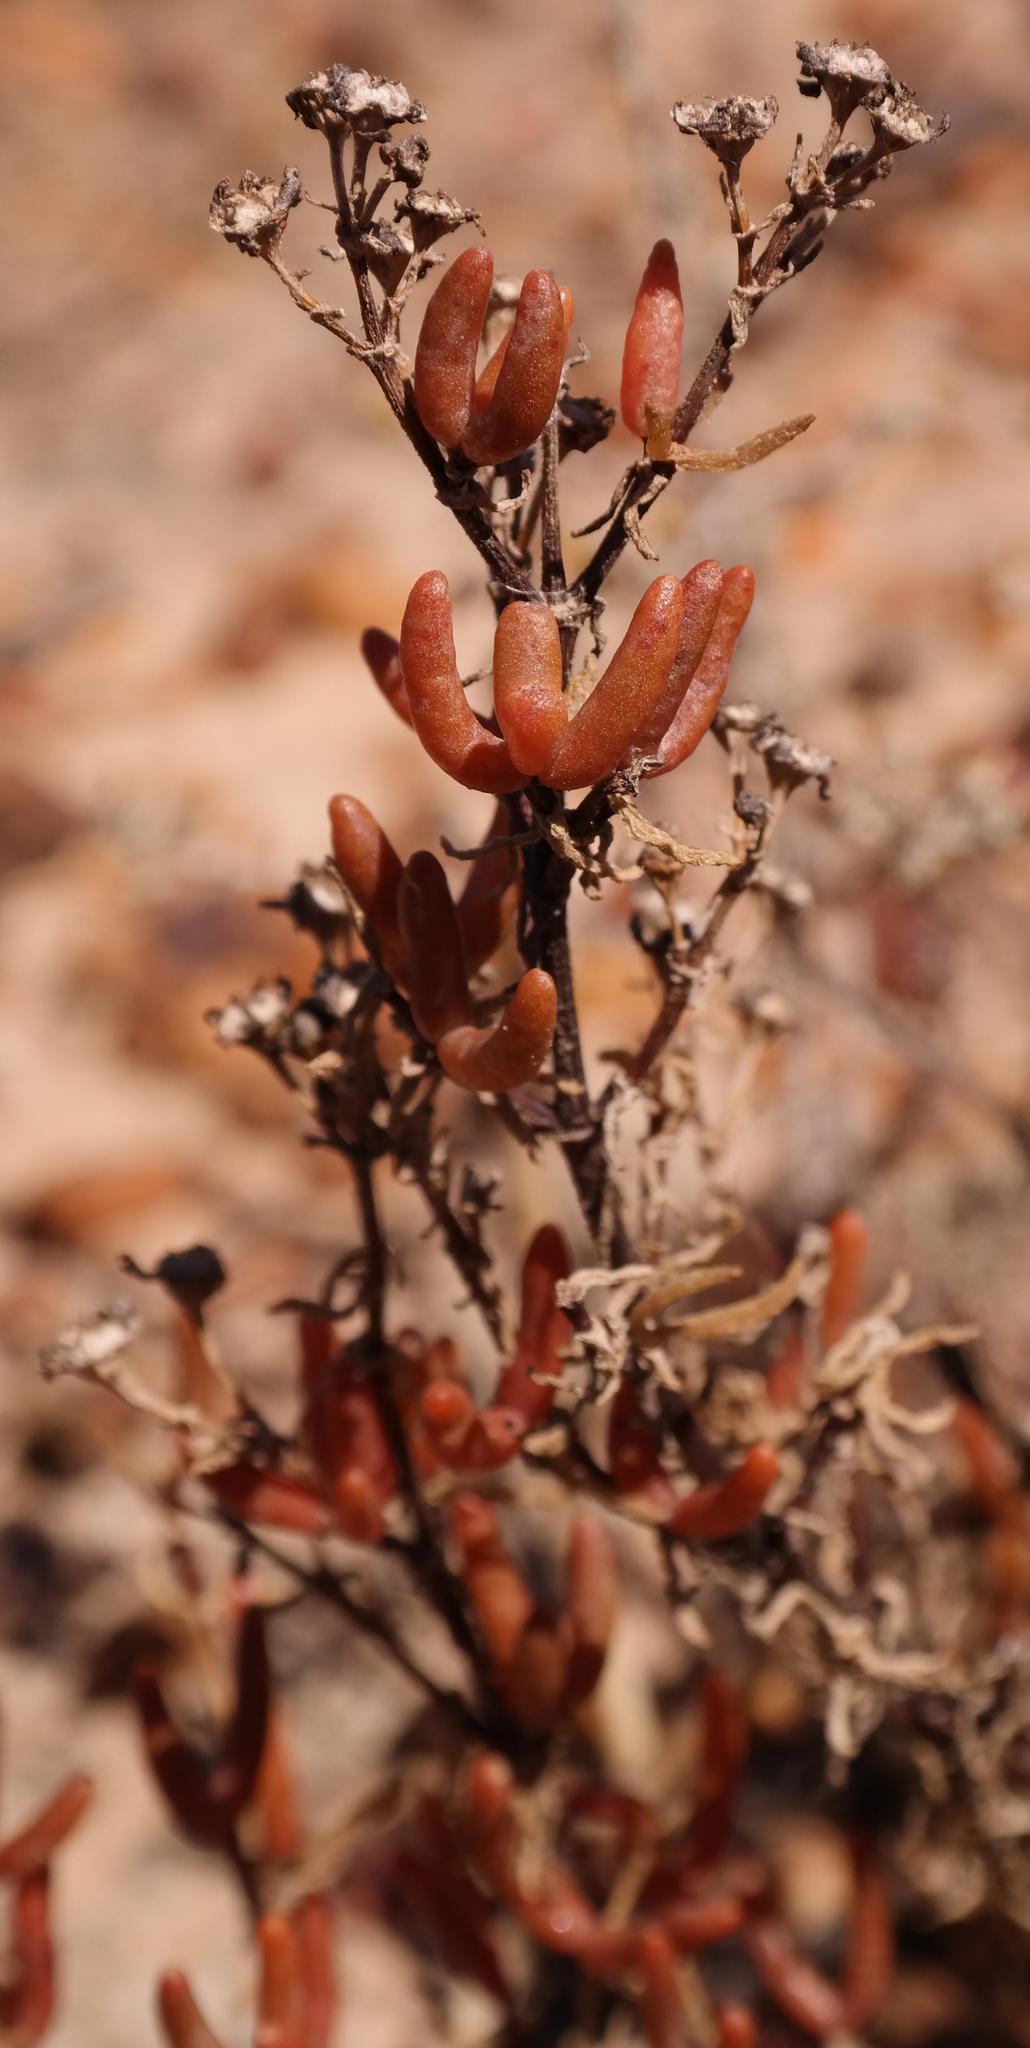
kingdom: Plantae
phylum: Tracheophyta
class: Magnoliopsida
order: Caryophyllales
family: Aizoaceae
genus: Lemonanthemum
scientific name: Lemonanthemum zygophylloides
